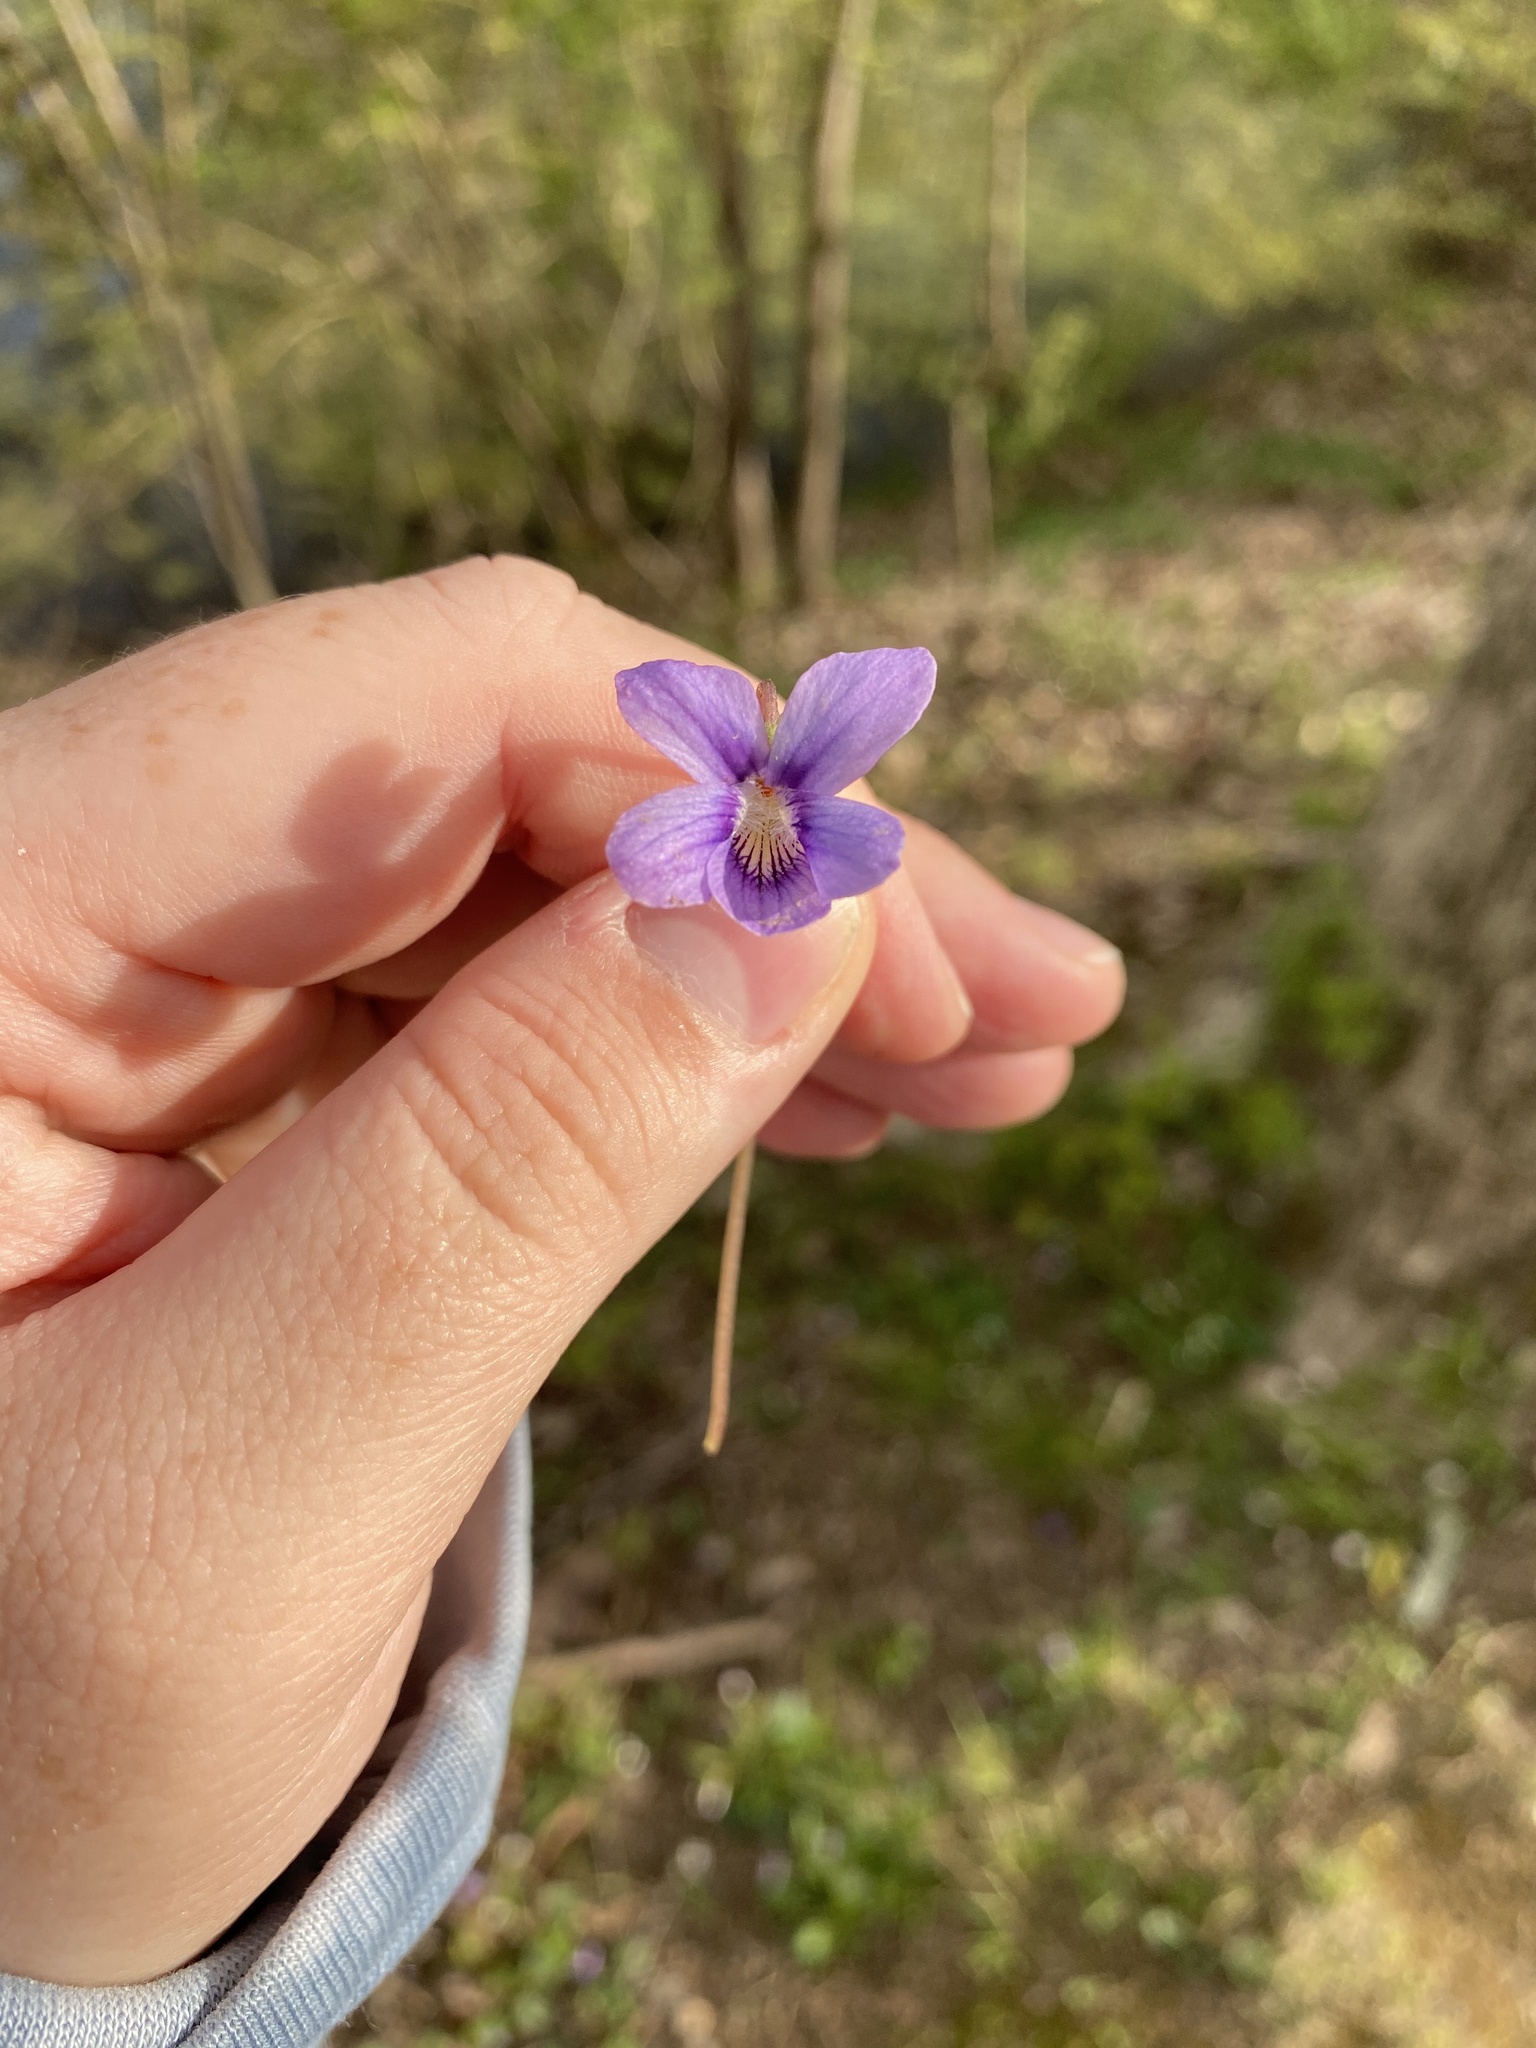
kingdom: Plantae
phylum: Tracheophyta
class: Magnoliopsida
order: Malpighiales
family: Violaceae
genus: Viola
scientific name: Viola affinis
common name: Leconte's violet
